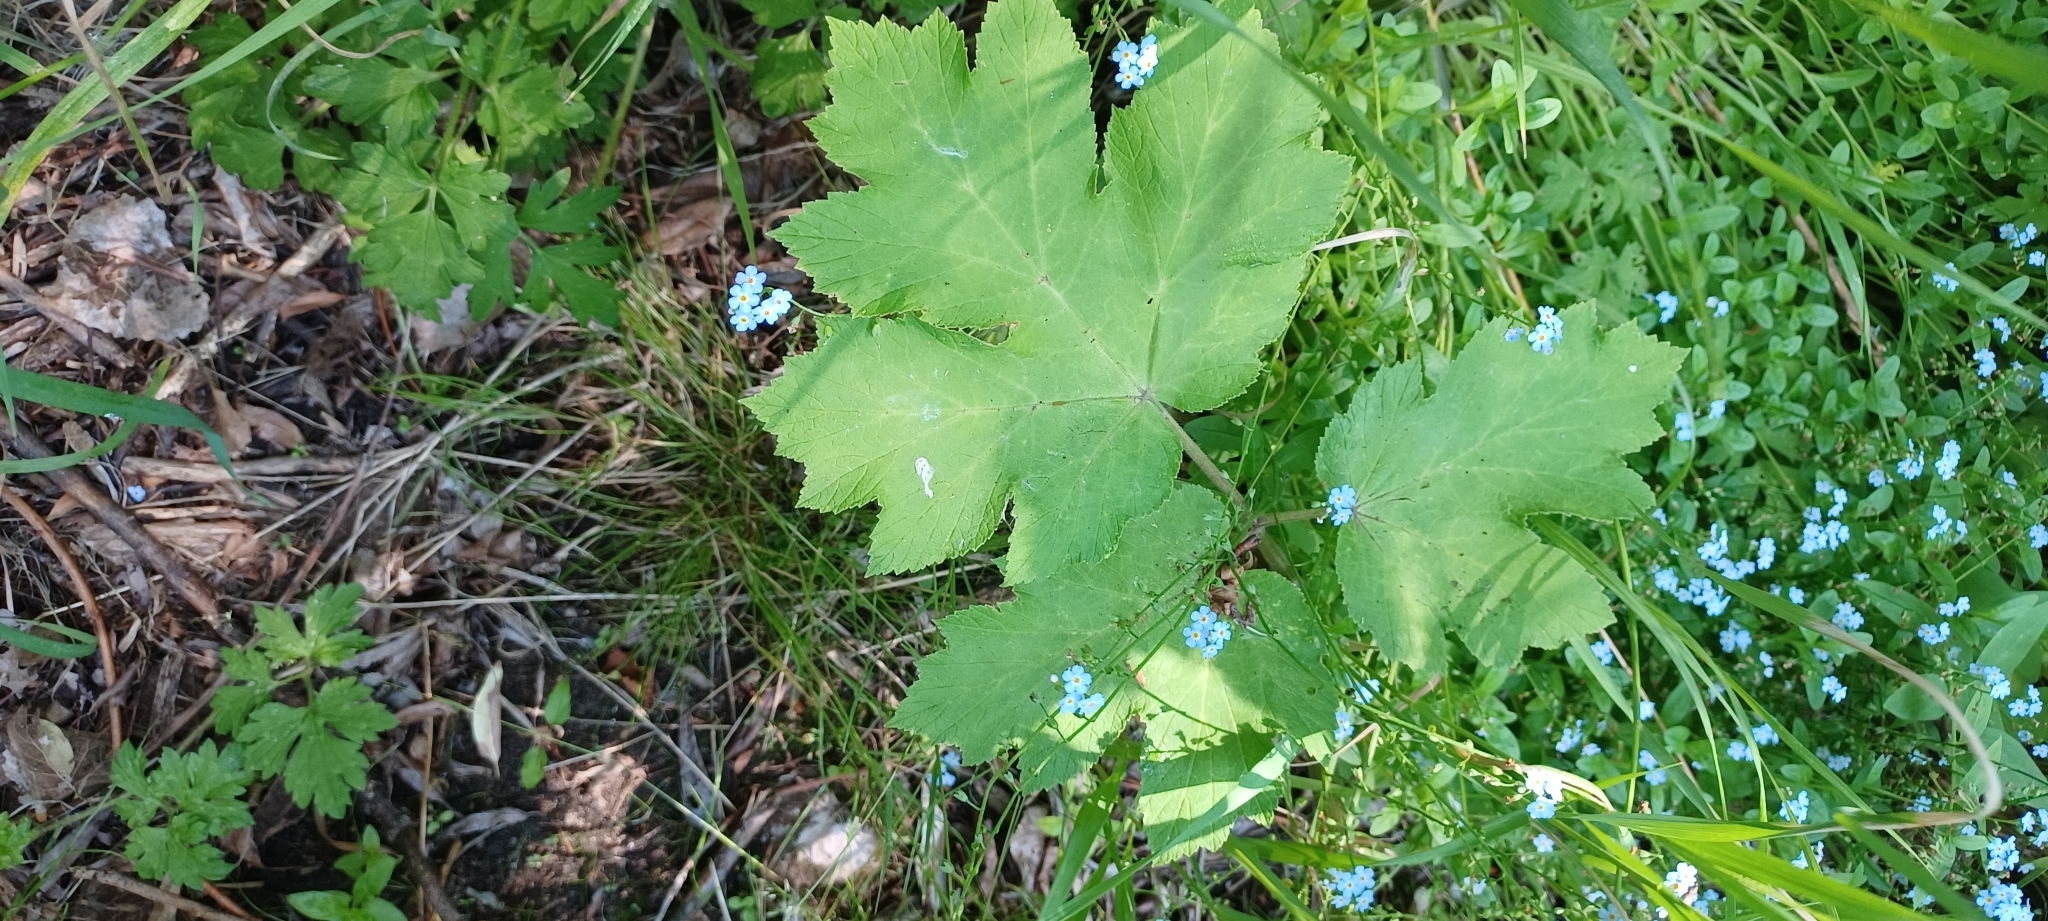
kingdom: Plantae
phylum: Tracheophyta
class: Magnoliopsida
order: Apiales
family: Apiaceae
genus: Heracleum
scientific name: Heracleum maximum
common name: American cow parsnip
